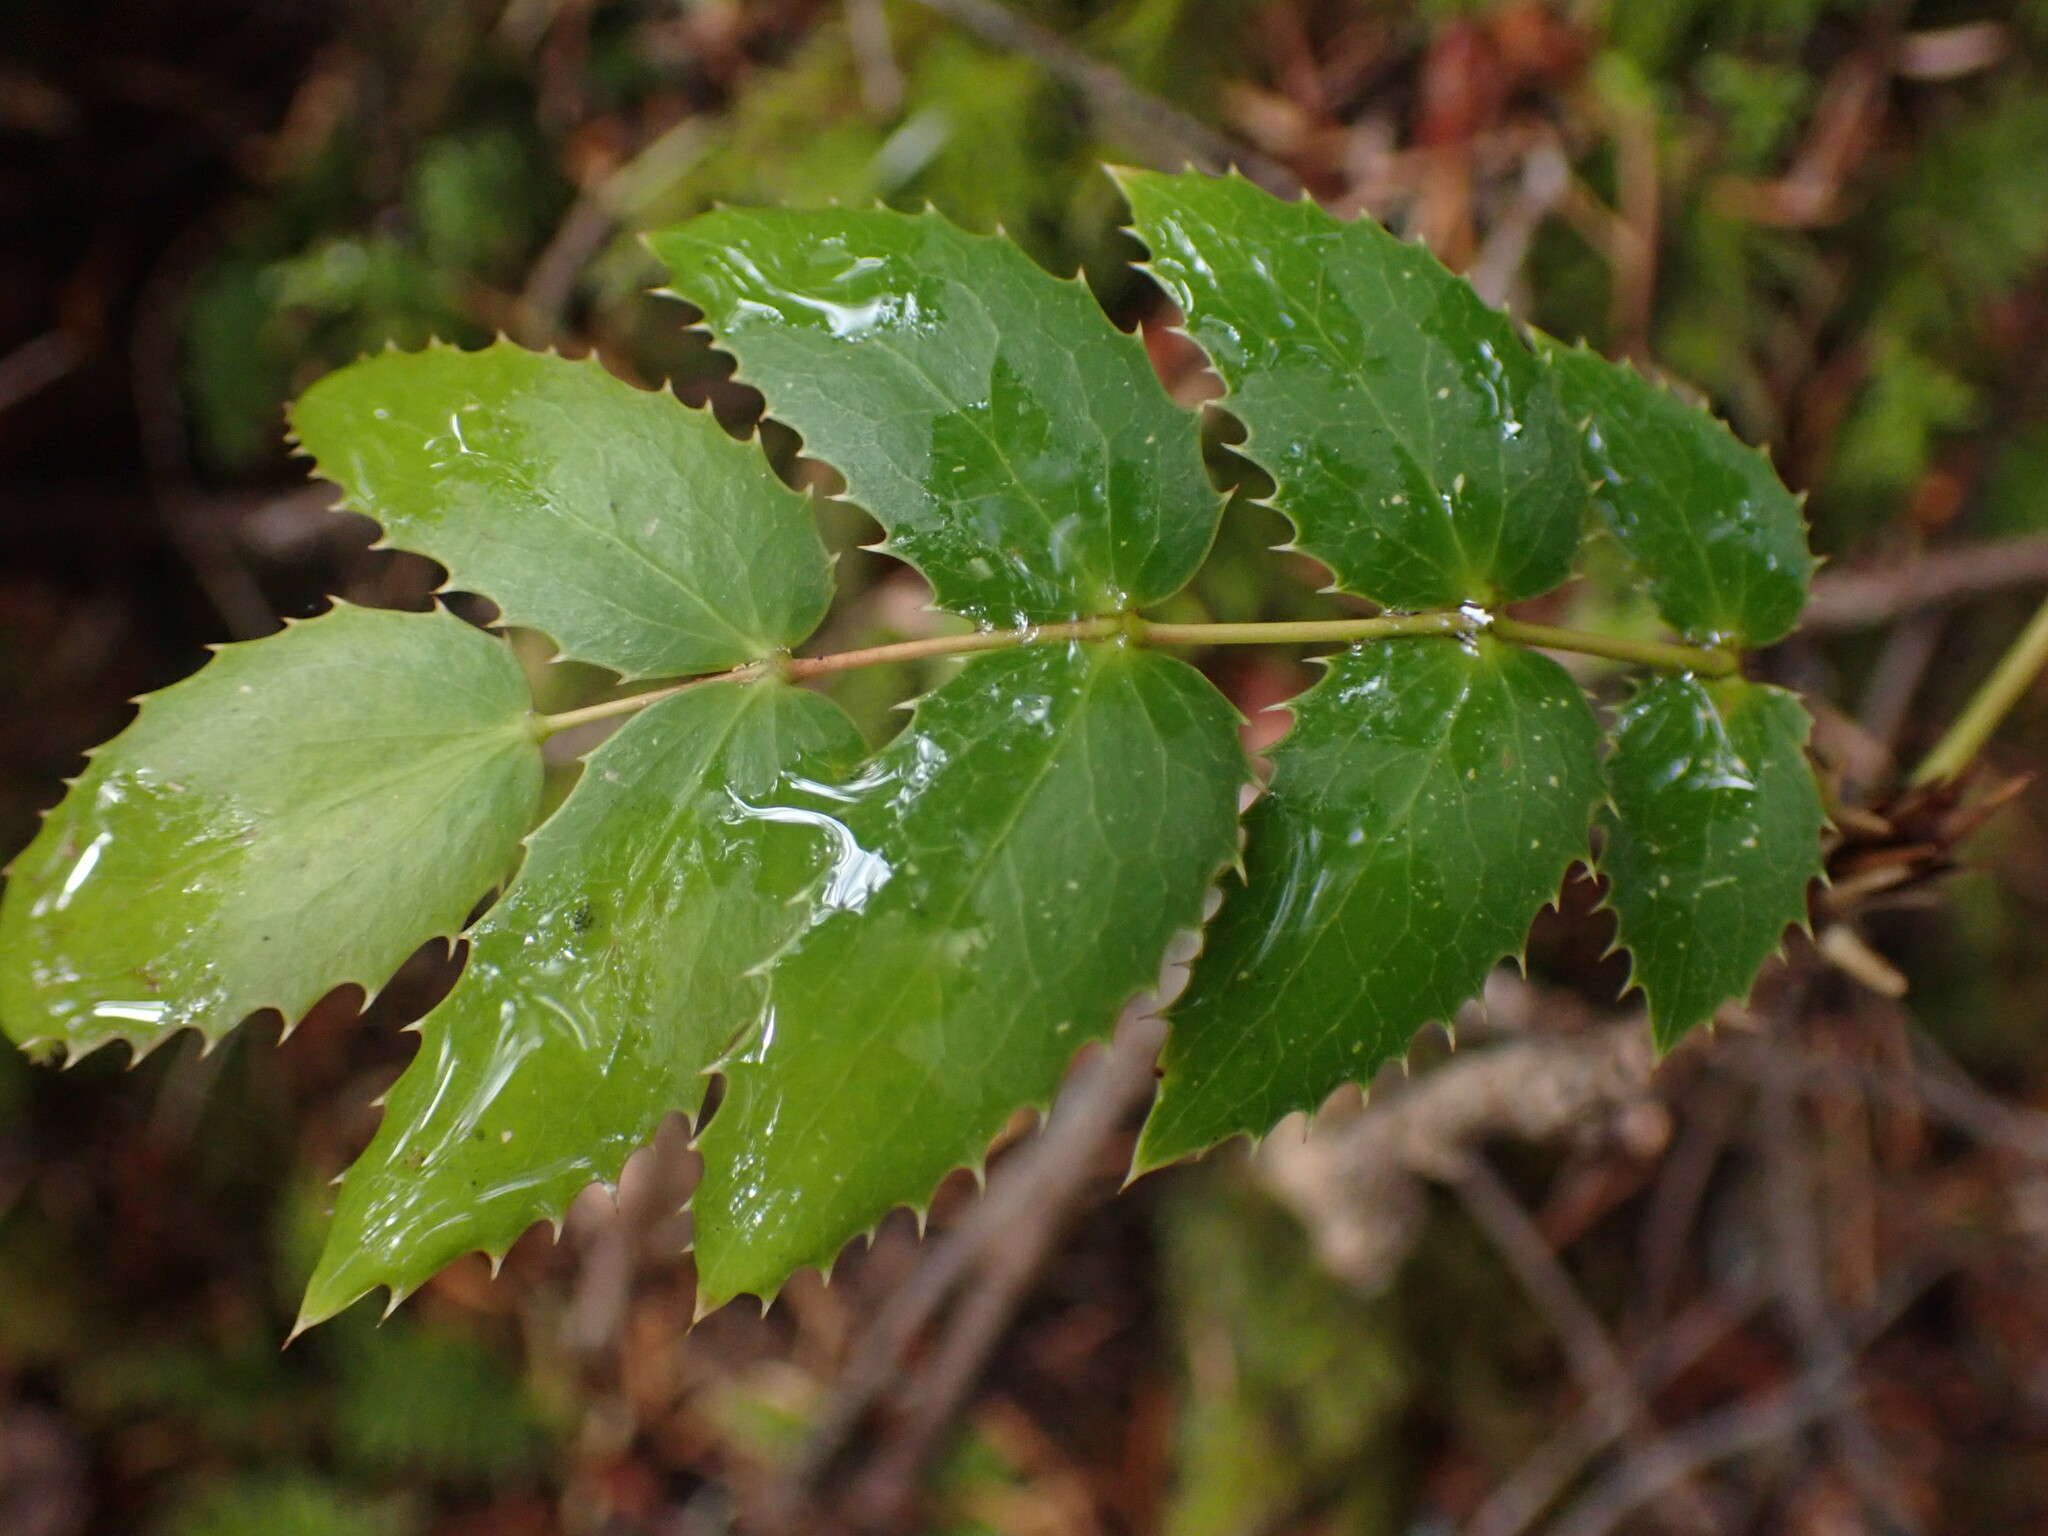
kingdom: Plantae
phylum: Tracheophyta
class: Magnoliopsida
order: Ranunculales
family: Berberidaceae
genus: Mahonia
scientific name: Mahonia nervosa
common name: Cascade oregon-grape
